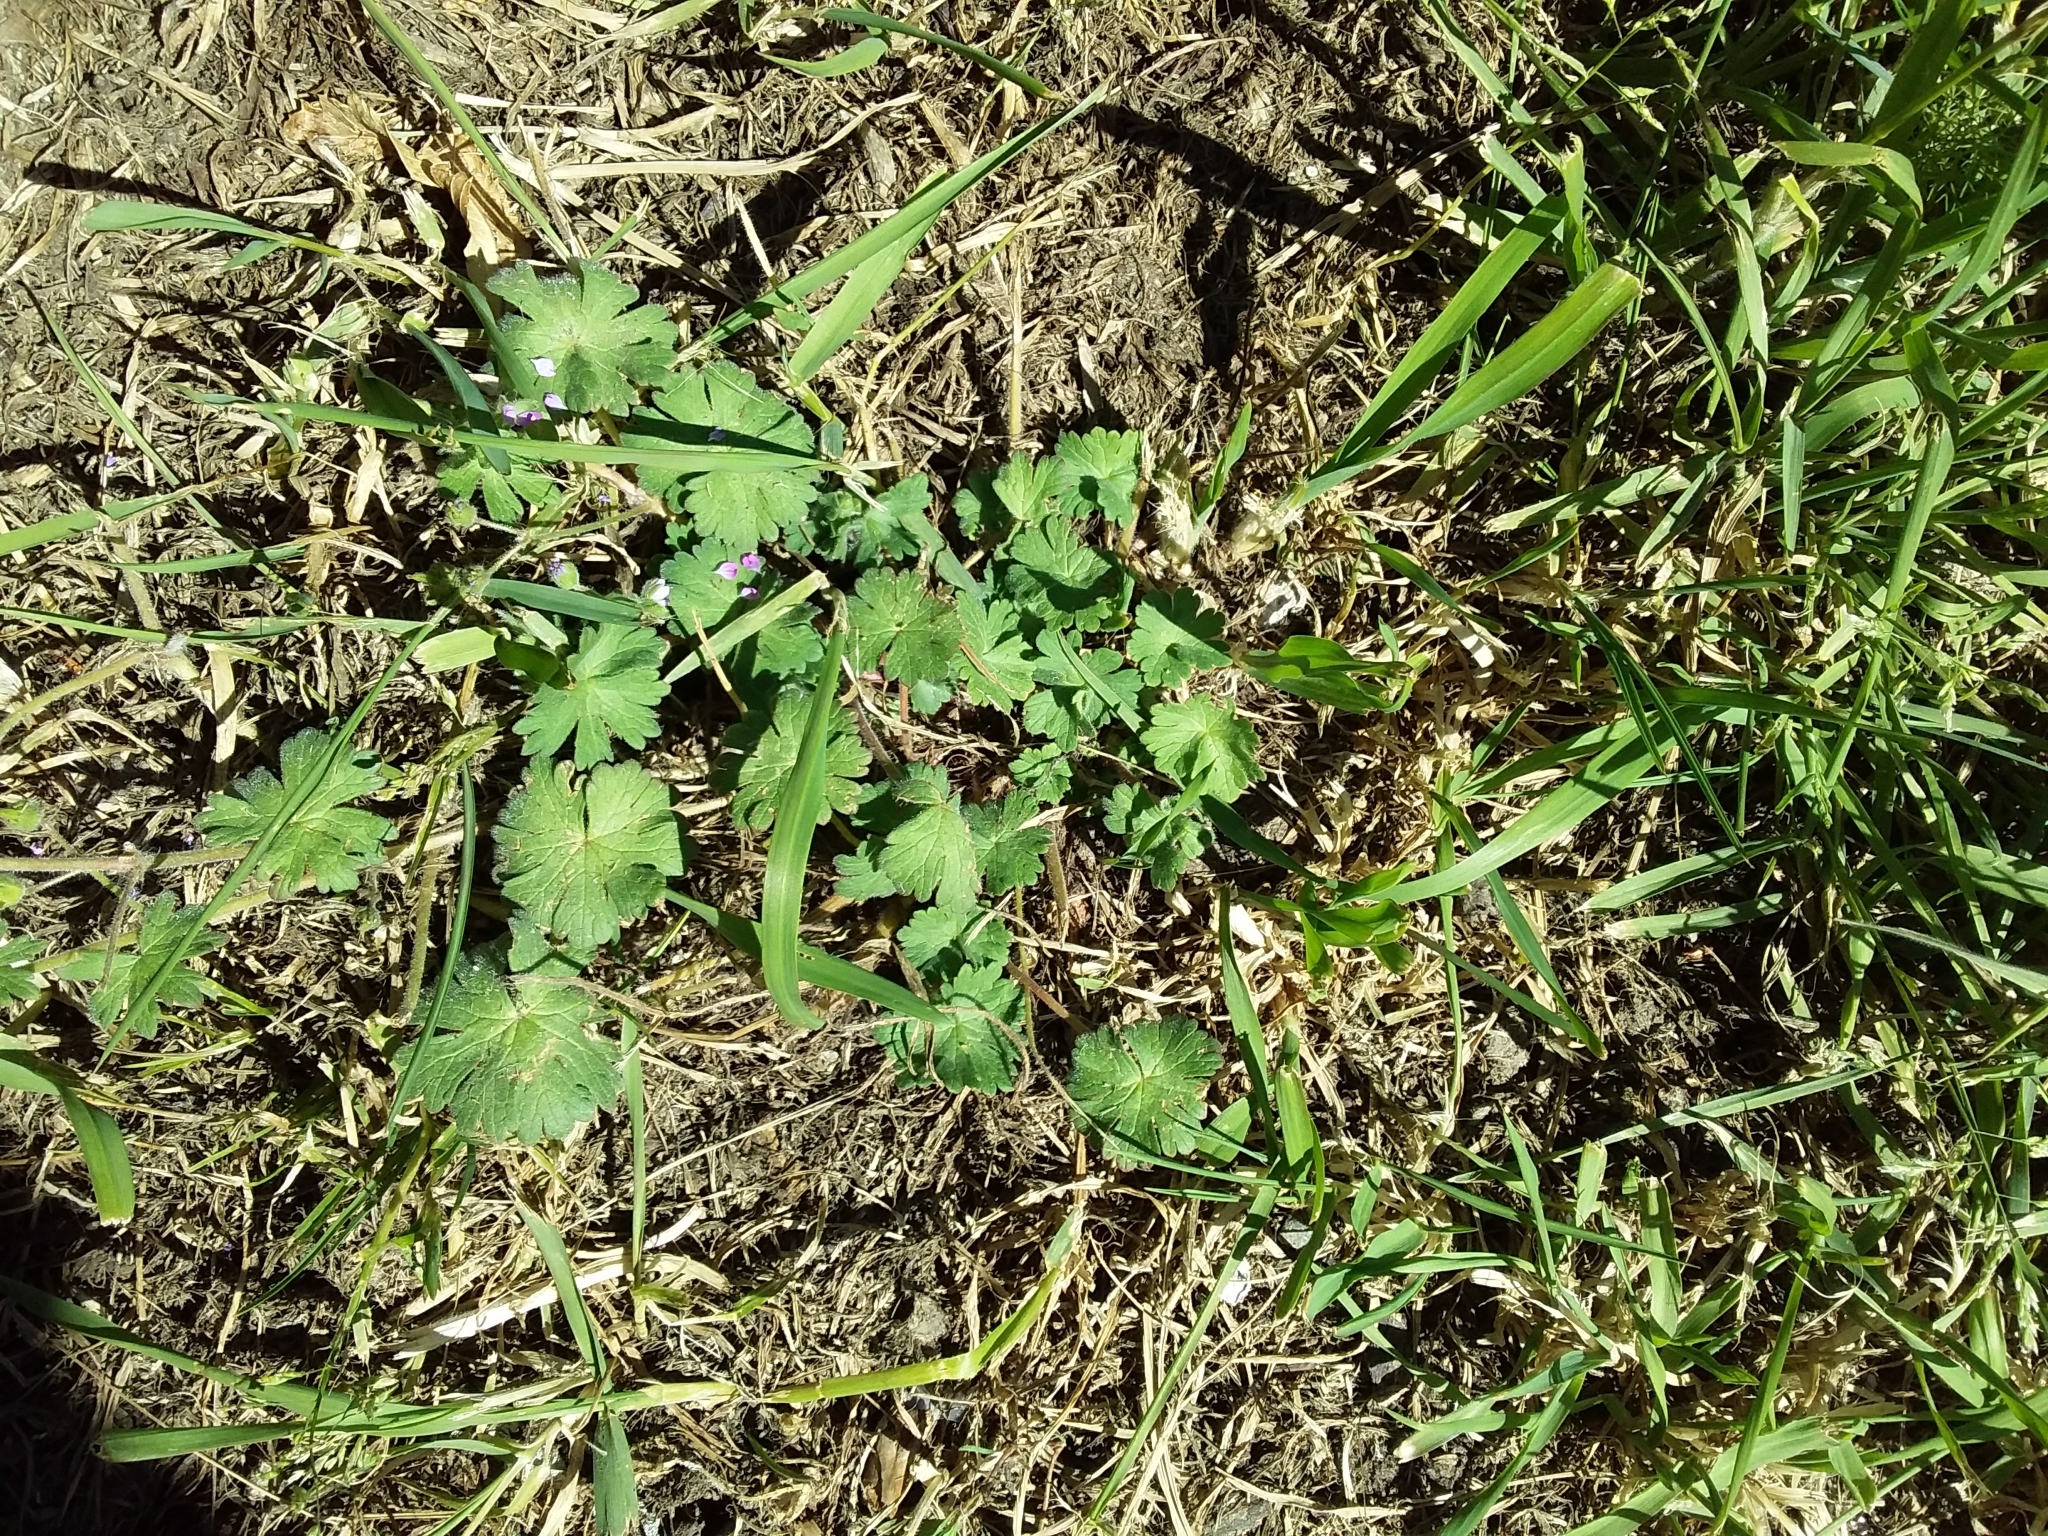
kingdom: Plantae
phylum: Tracheophyta
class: Magnoliopsida
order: Geraniales
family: Geraniaceae
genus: Geranium
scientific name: Geranium molle
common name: Dove's-foot crane's-bill
